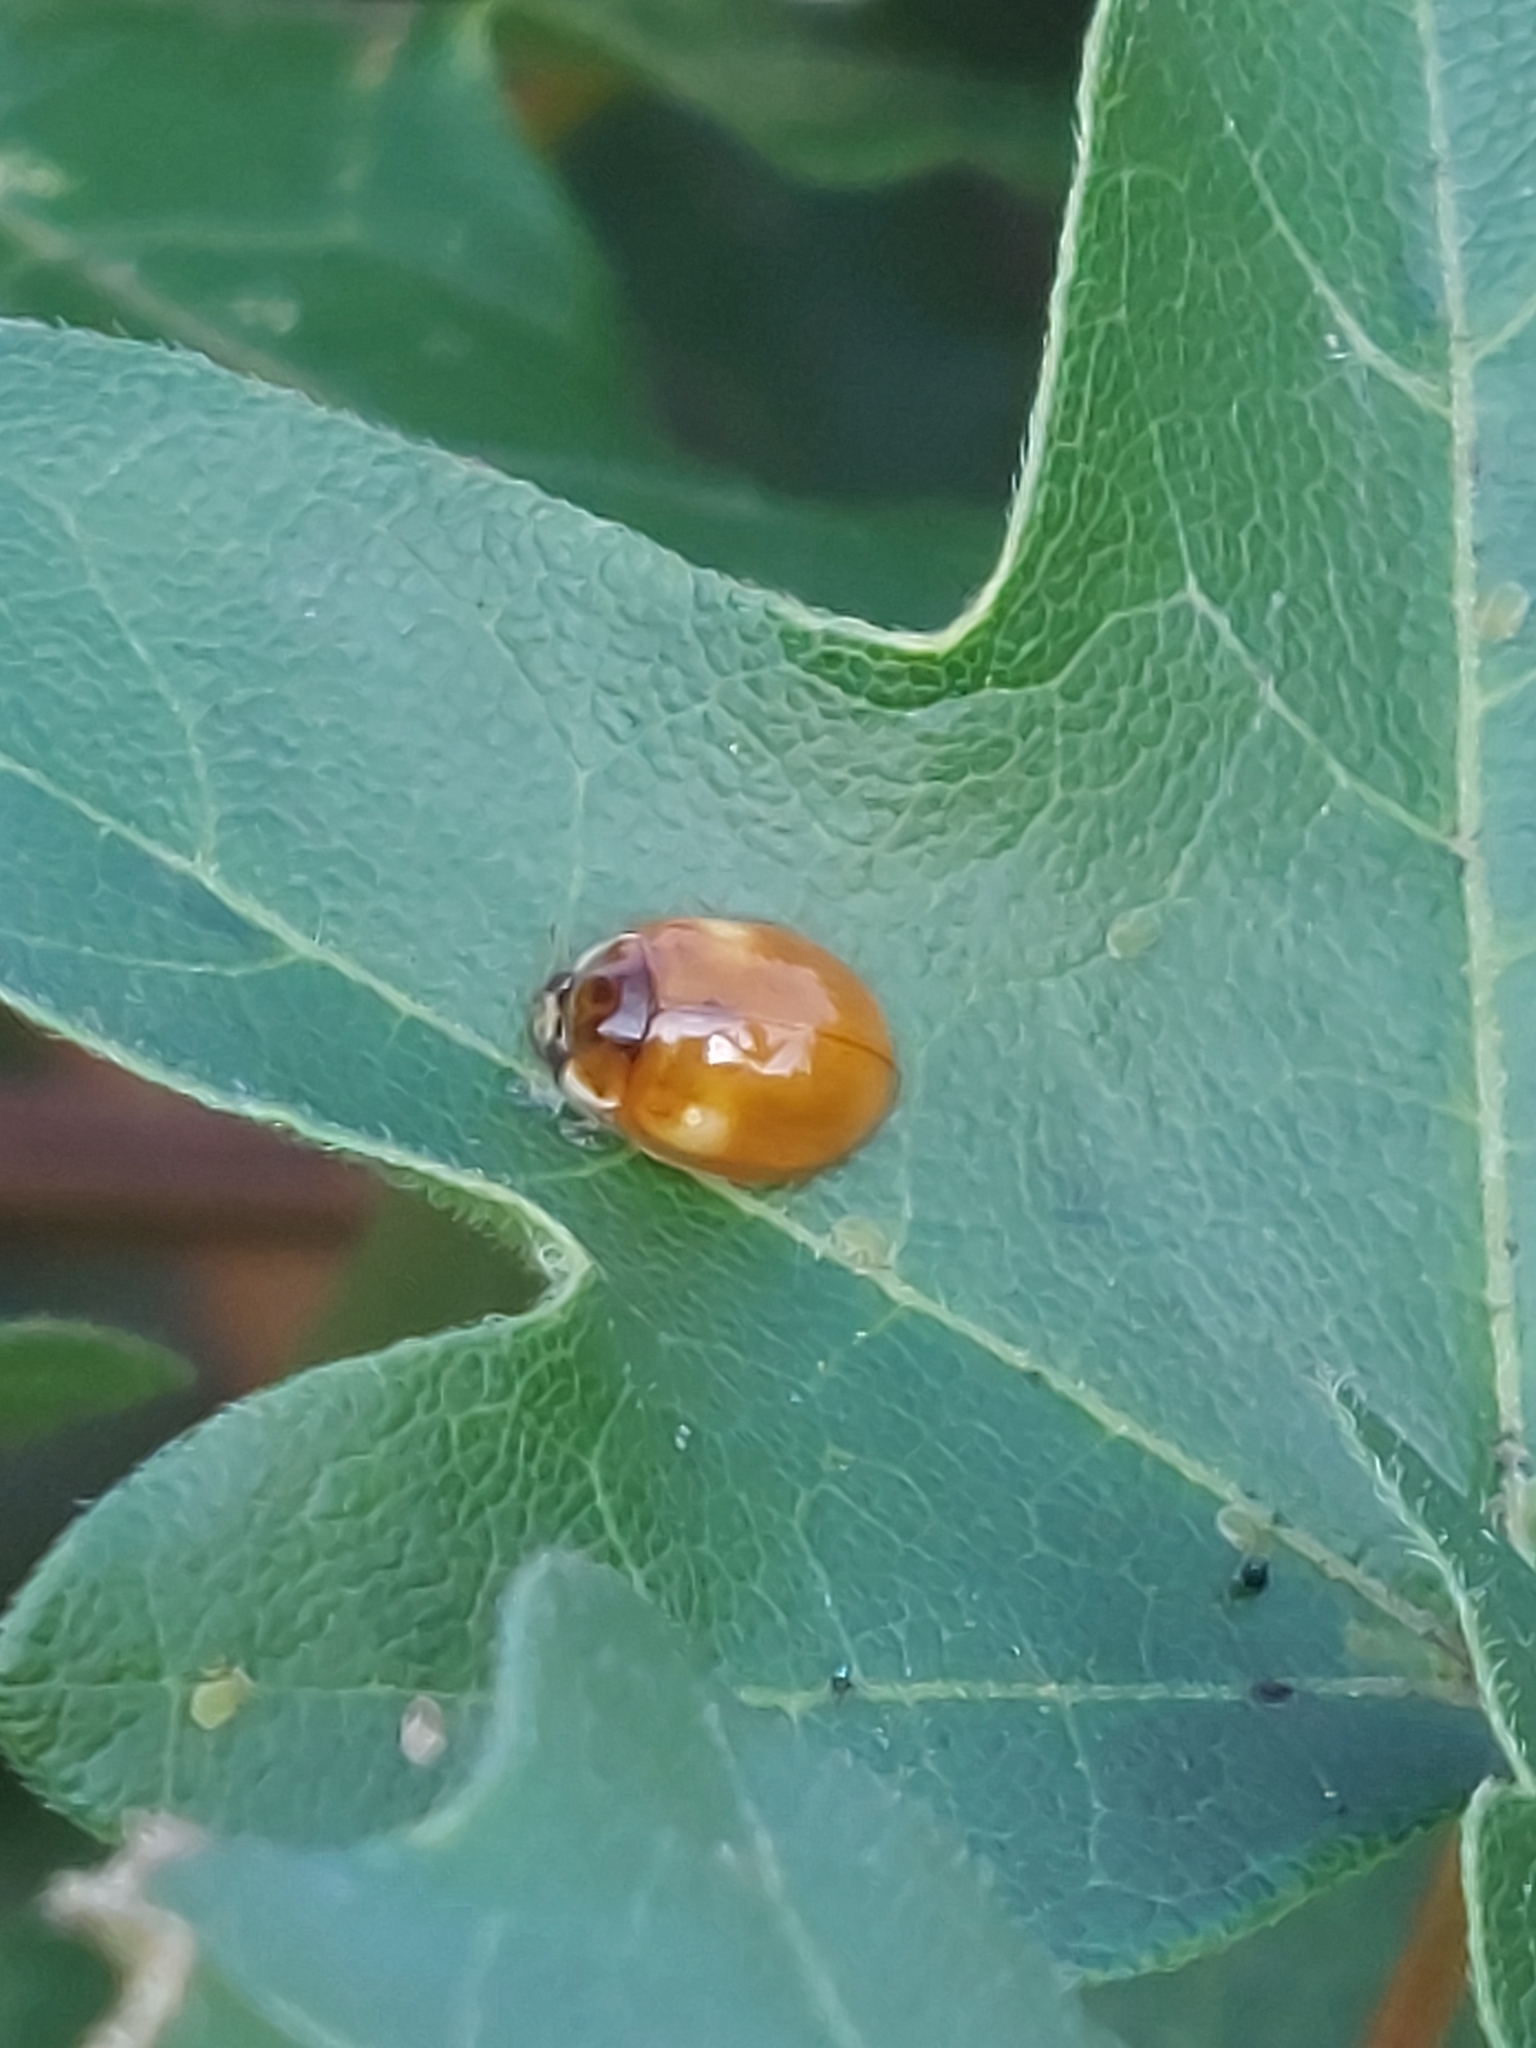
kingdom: Animalia
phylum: Arthropoda
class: Insecta
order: Coleoptera
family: Coccinellidae
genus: Adalia
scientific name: Adalia decempunctata
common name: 10-spot ladybird
